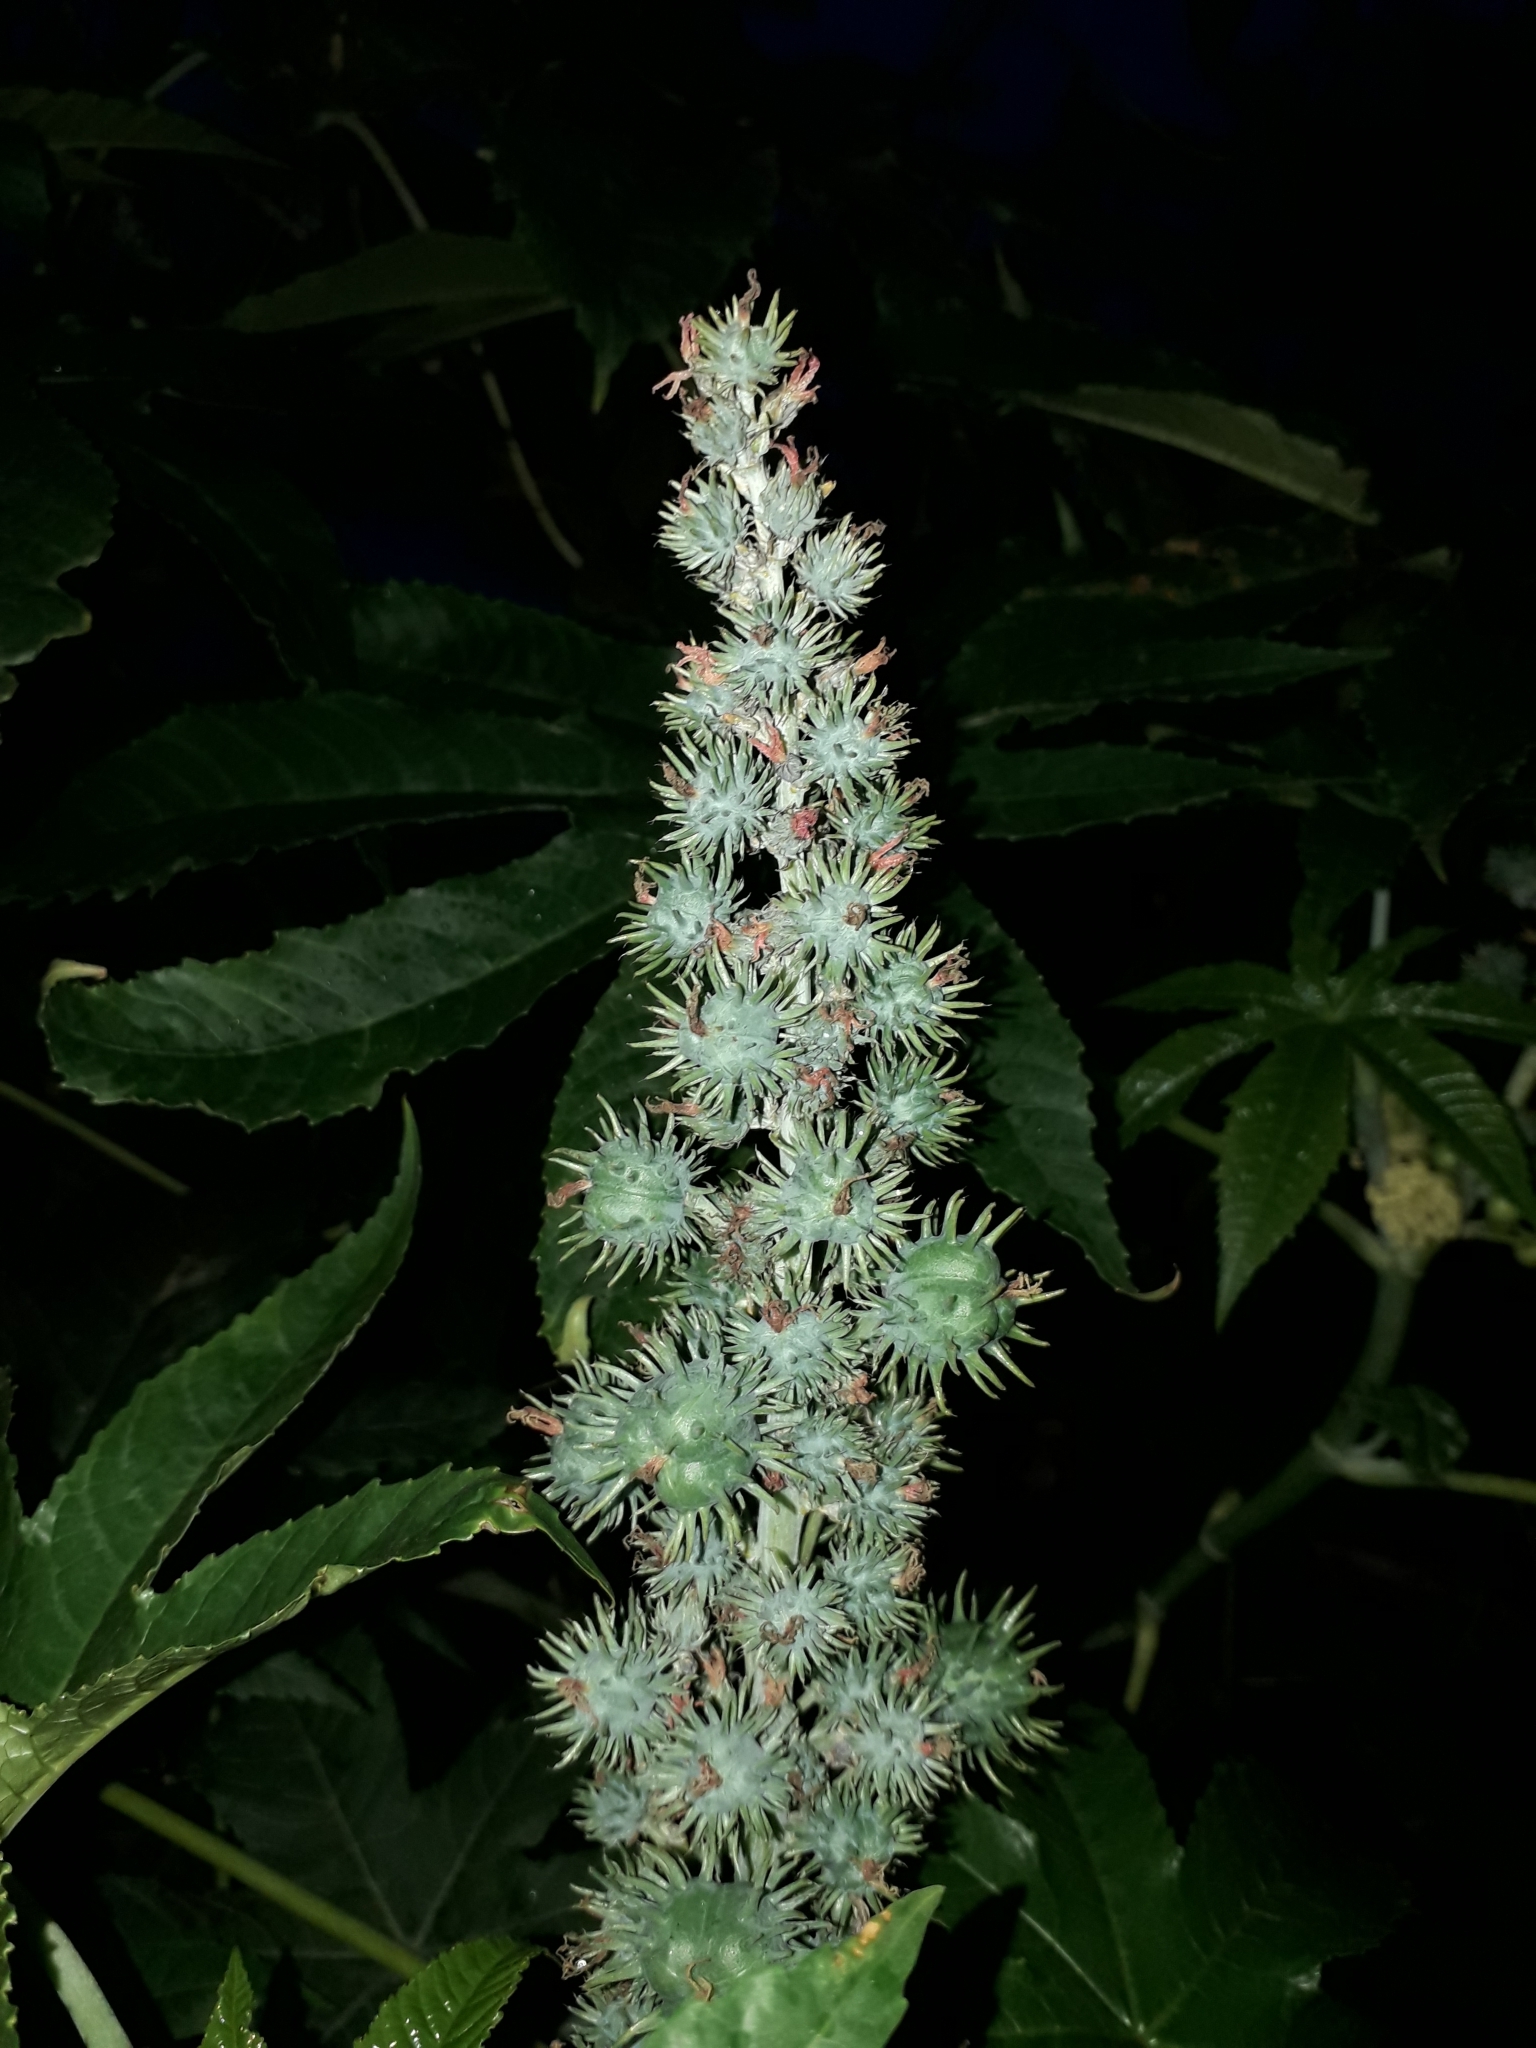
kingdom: Plantae
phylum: Tracheophyta
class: Magnoliopsida
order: Malpighiales
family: Euphorbiaceae
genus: Ricinus
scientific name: Ricinus communis
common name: Castor-oil-plant
